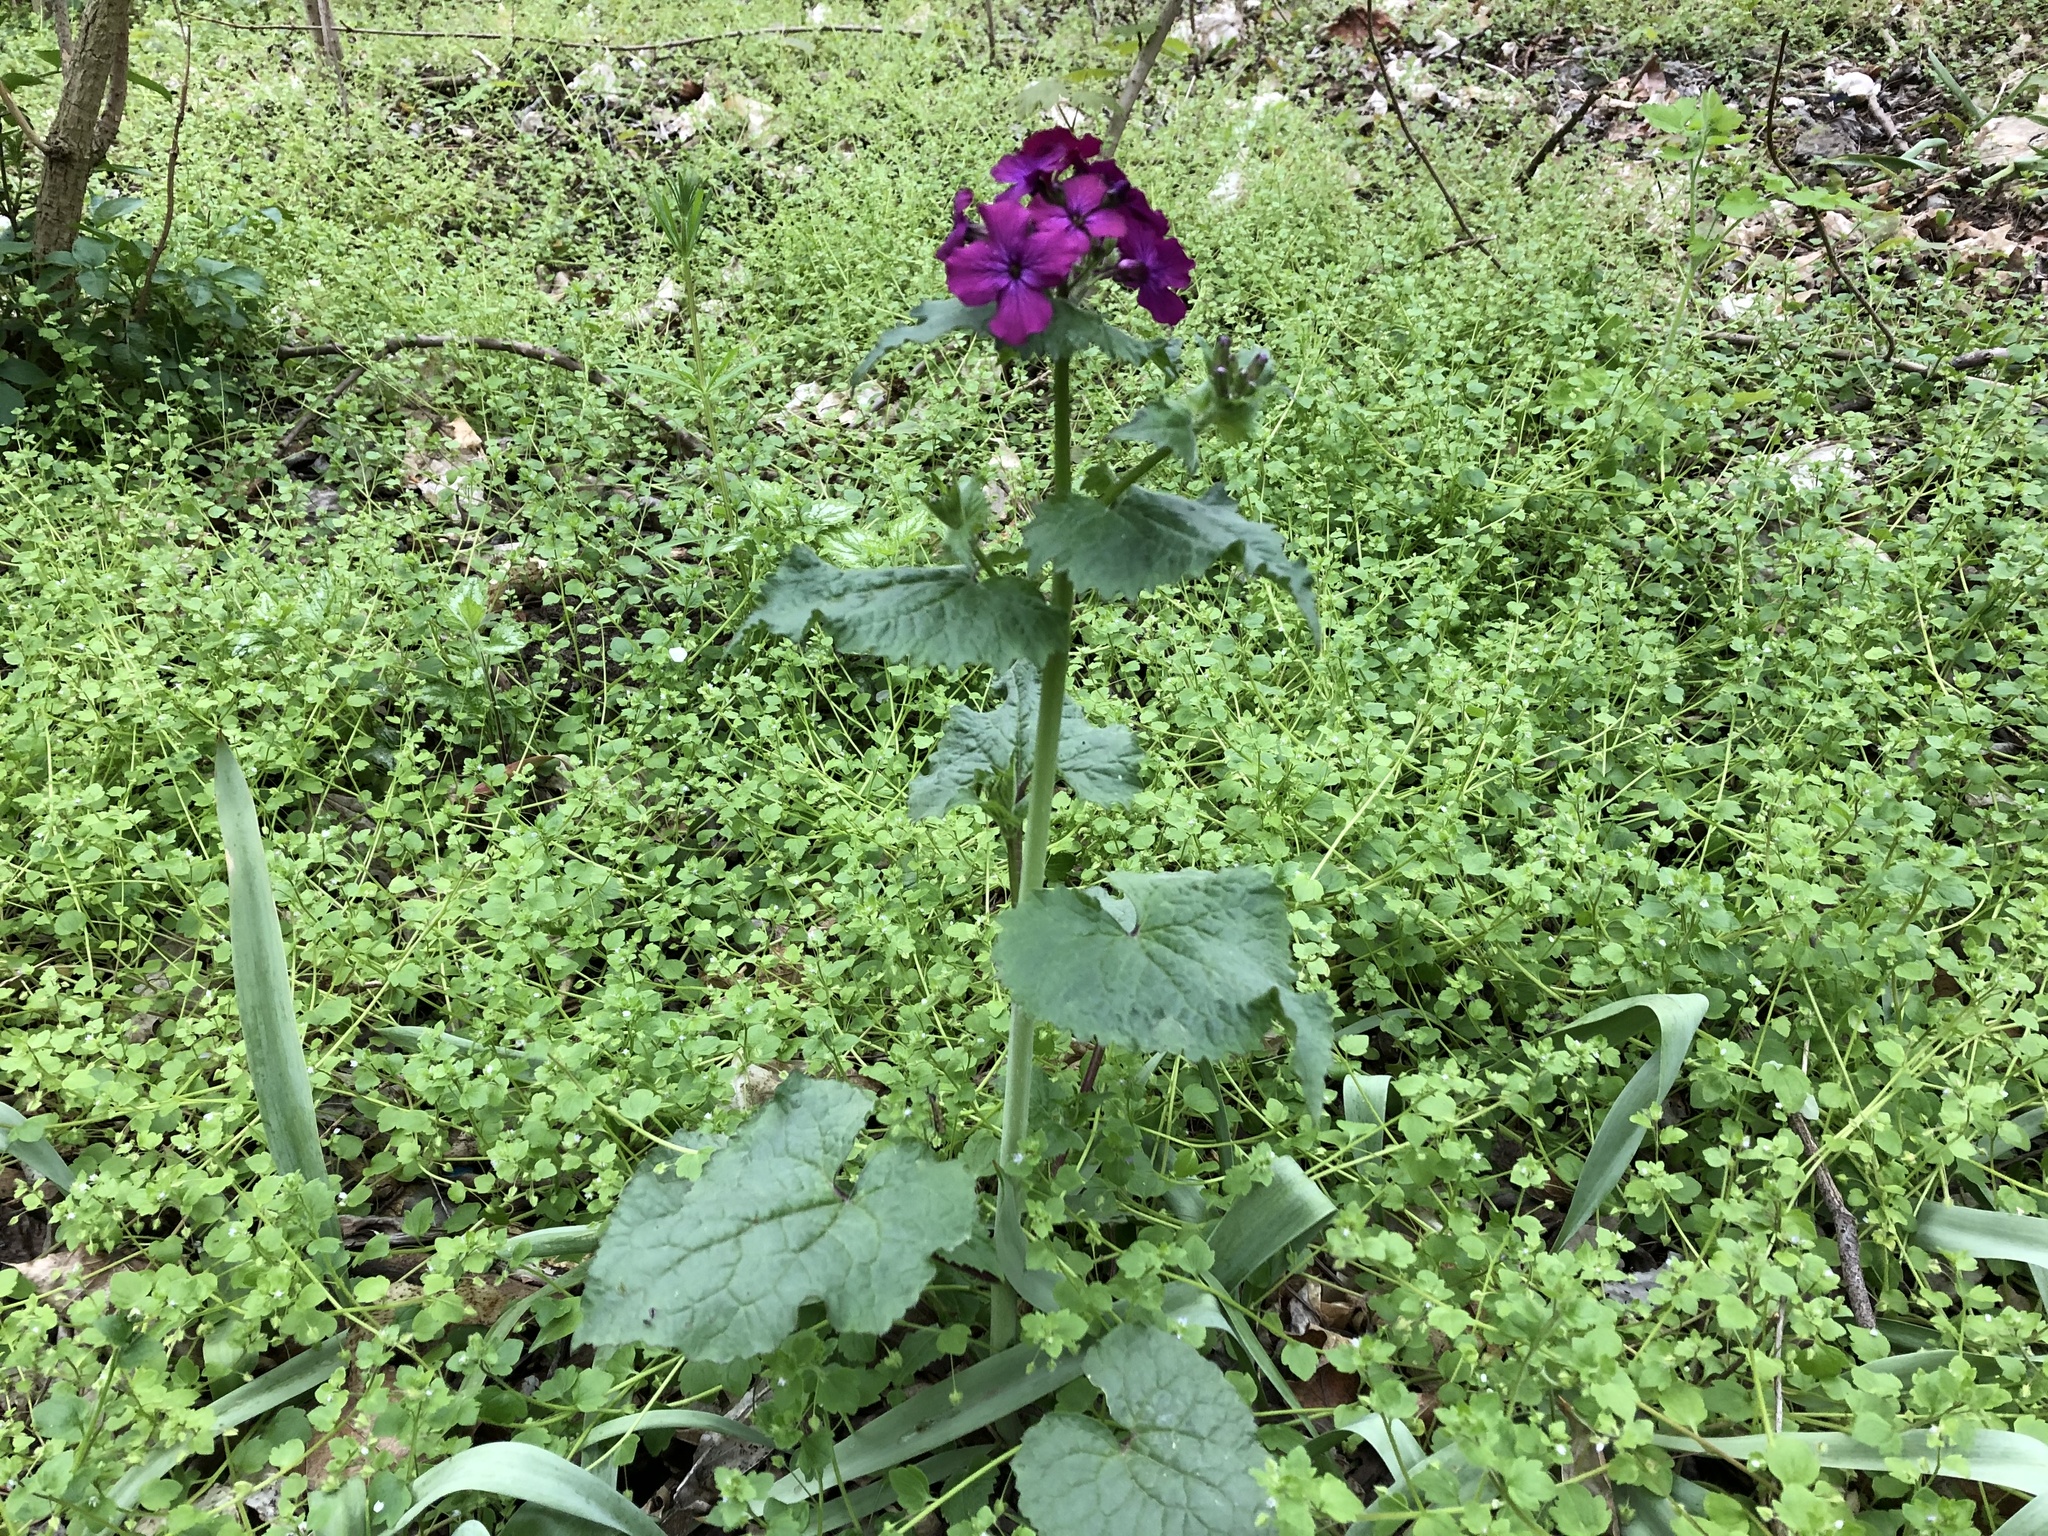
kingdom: Plantae
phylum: Tracheophyta
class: Magnoliopsida
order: Brassicales
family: Brassicaceae
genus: Lunaria
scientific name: Lunaria annua
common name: Honesty
